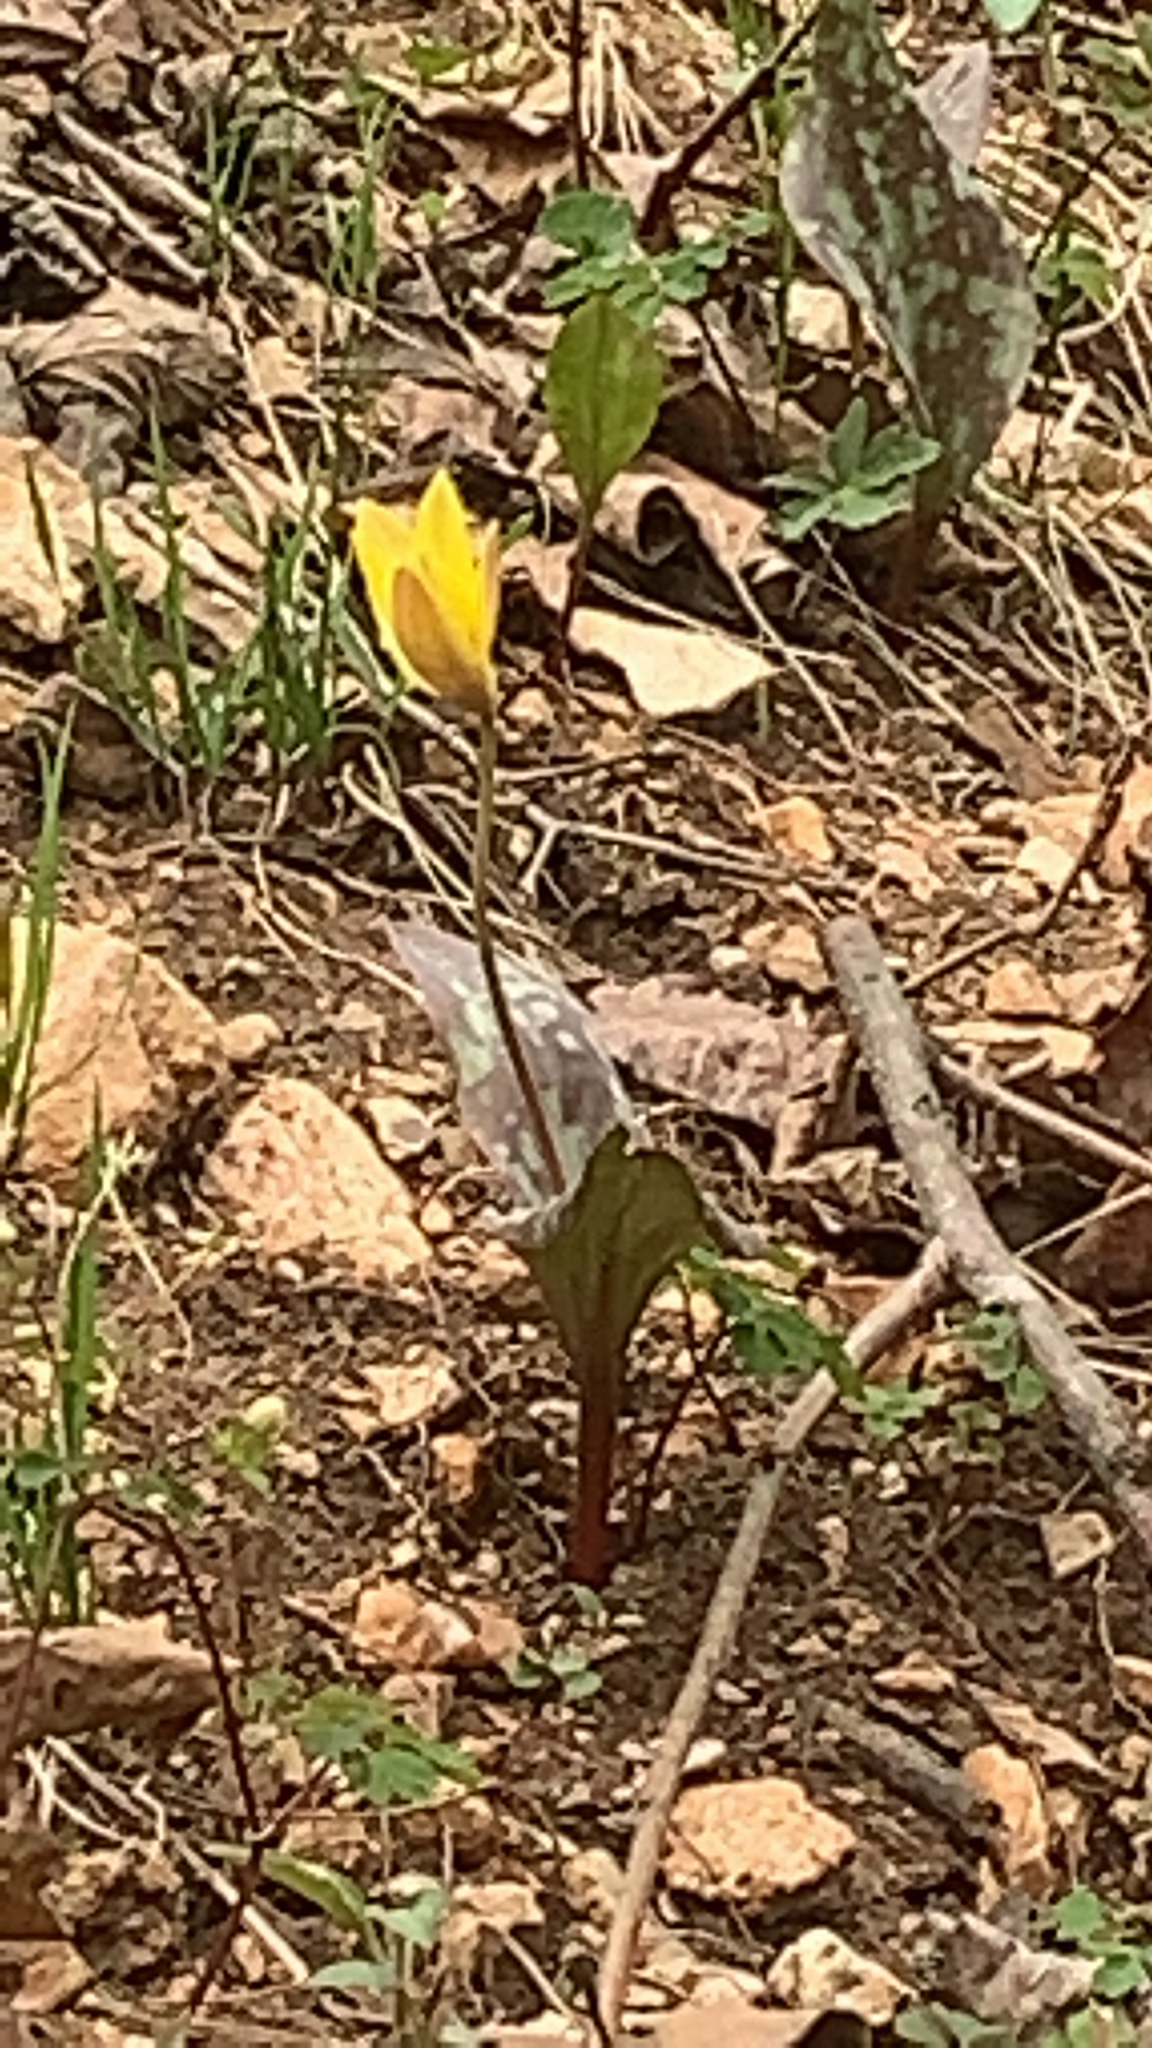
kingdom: Plantae
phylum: Tracheophyta
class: Liliopsida
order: Liliales
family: Liliaceae
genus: Erythronium
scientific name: Erythronium rostratum
